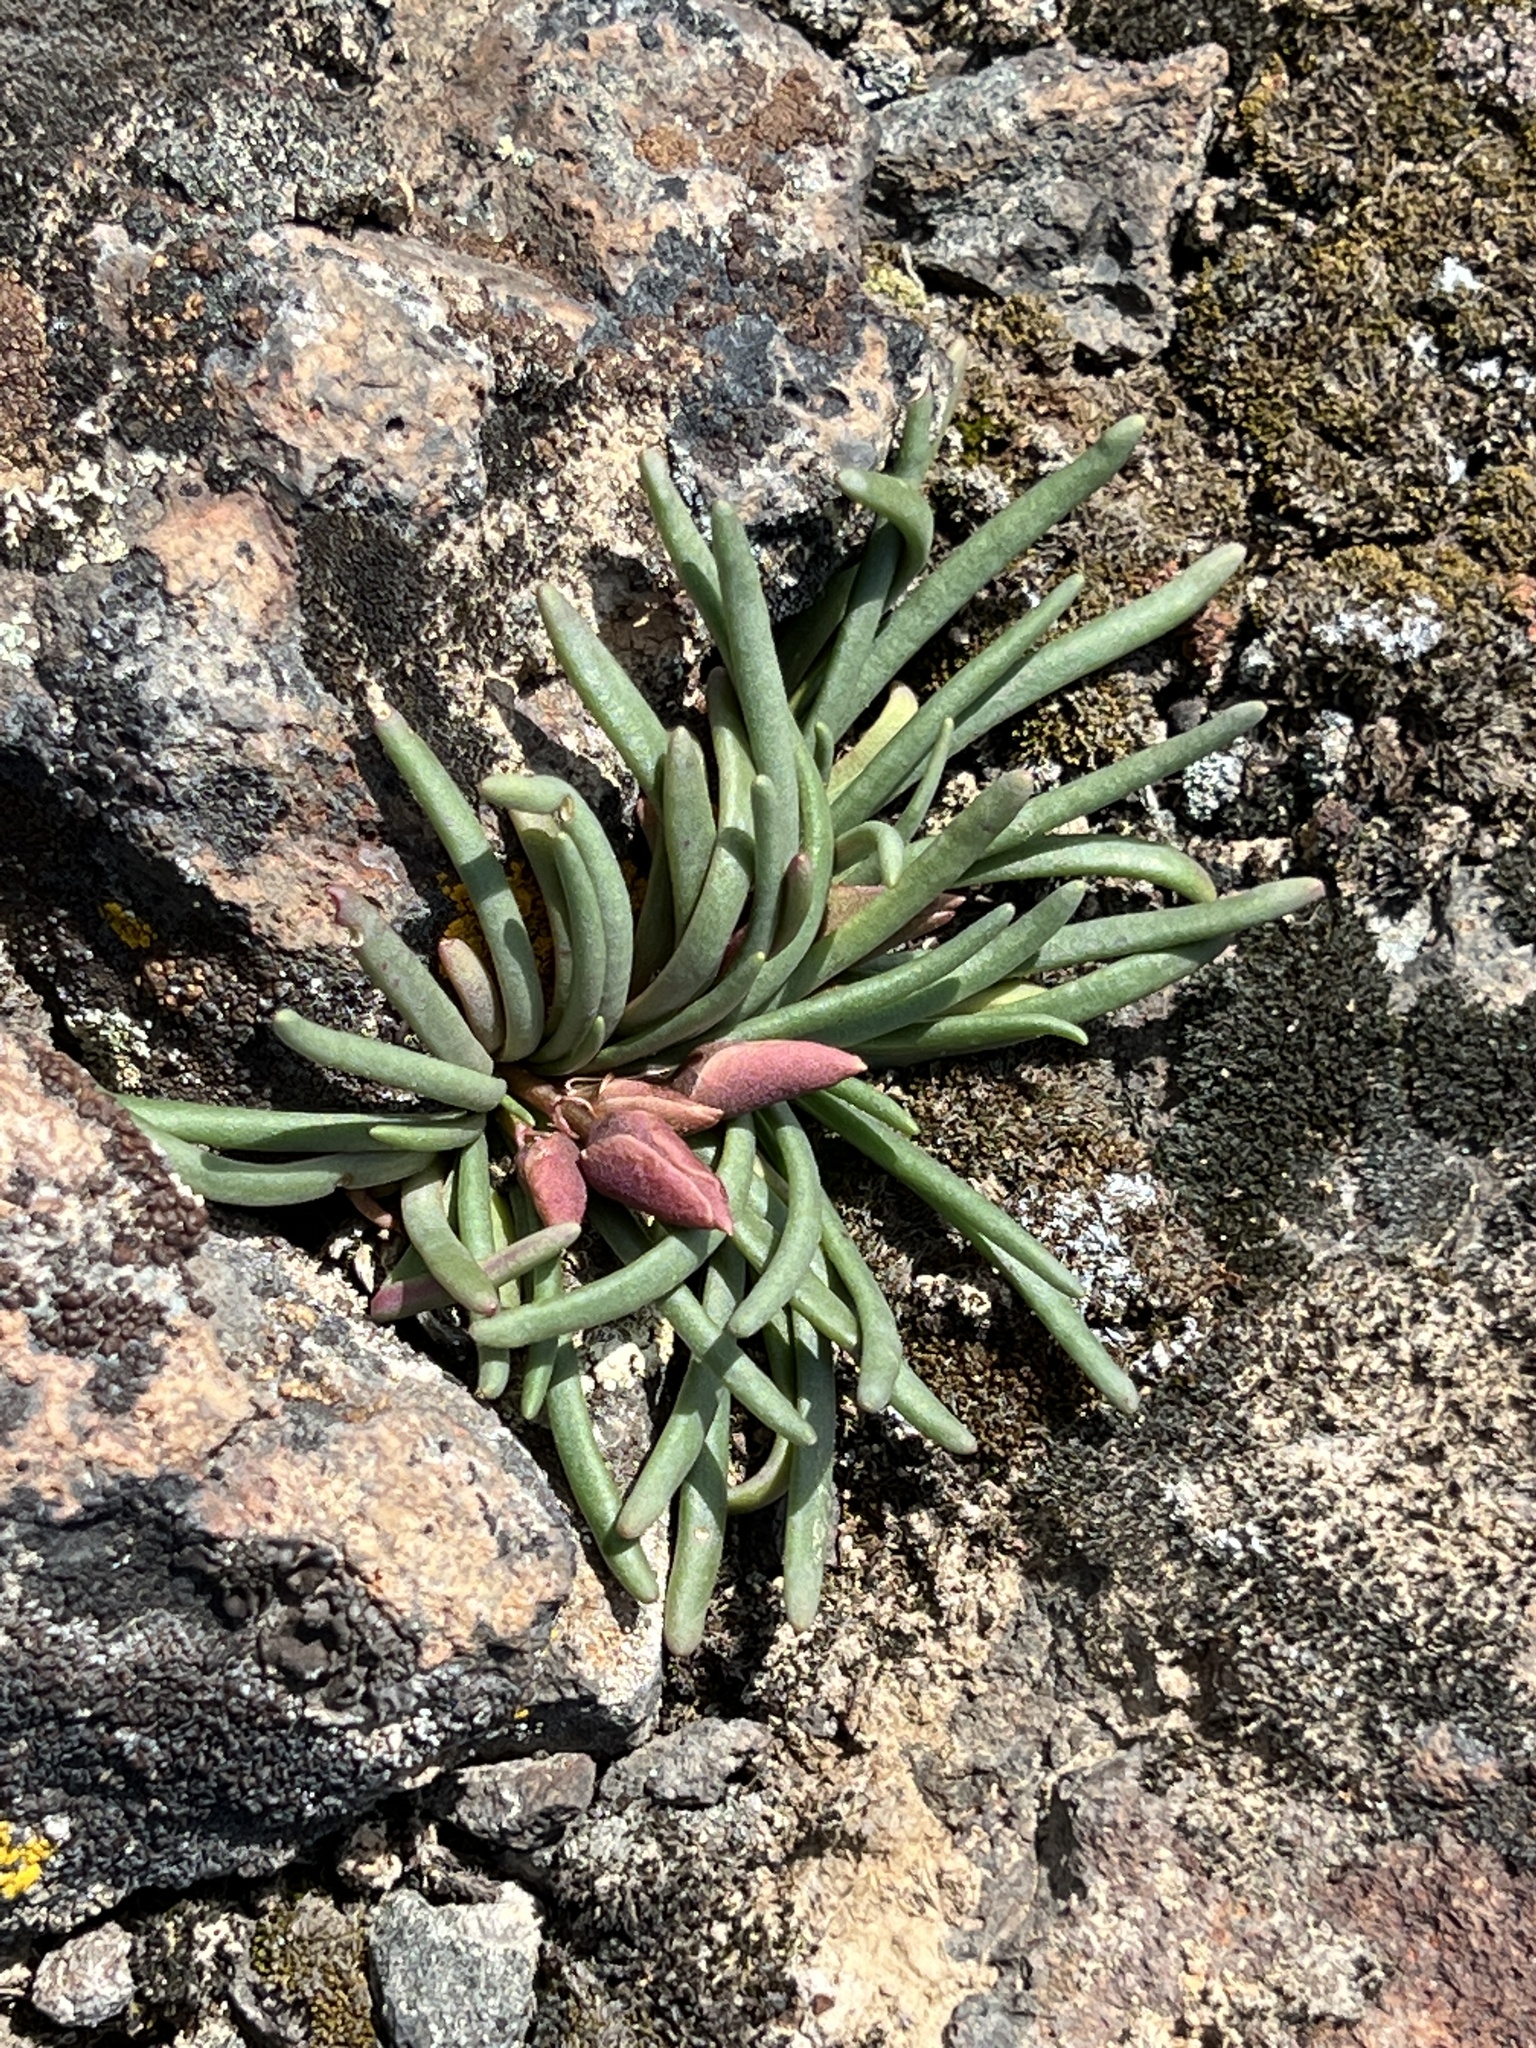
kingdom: Plantae
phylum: Tracheophyta
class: Magnoliopsida
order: Caryophyllales
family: Montiaceae
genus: Lewisia
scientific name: Lewisia rediviva
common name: Bitter-root
